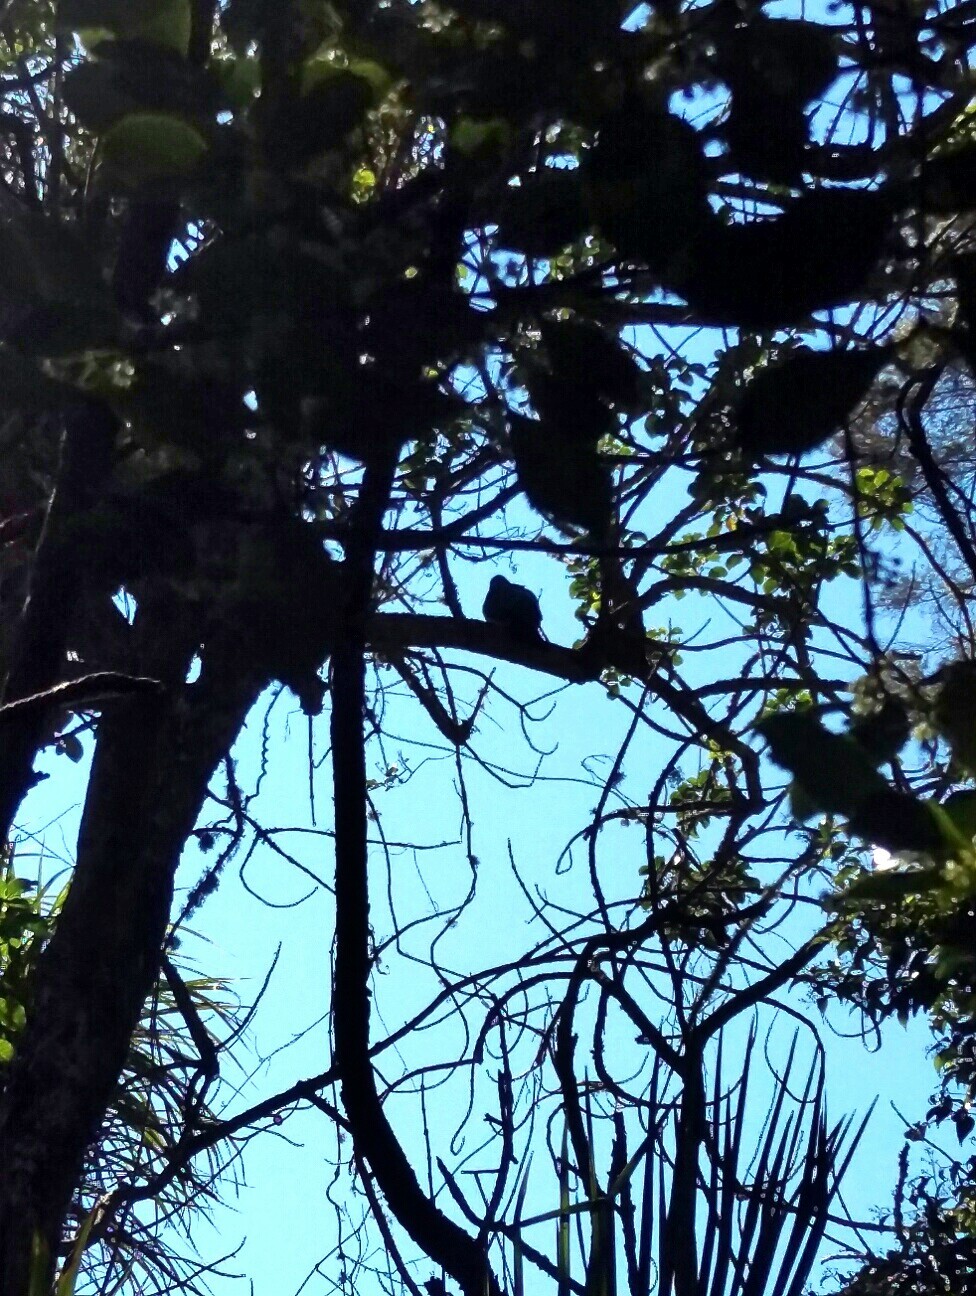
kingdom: Animalia
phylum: Chordata
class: Aves
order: Columbiformes
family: Columbidae
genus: Hemiphaga
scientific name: Hemiphaga novaeseelandiae
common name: New zealand pigeon
